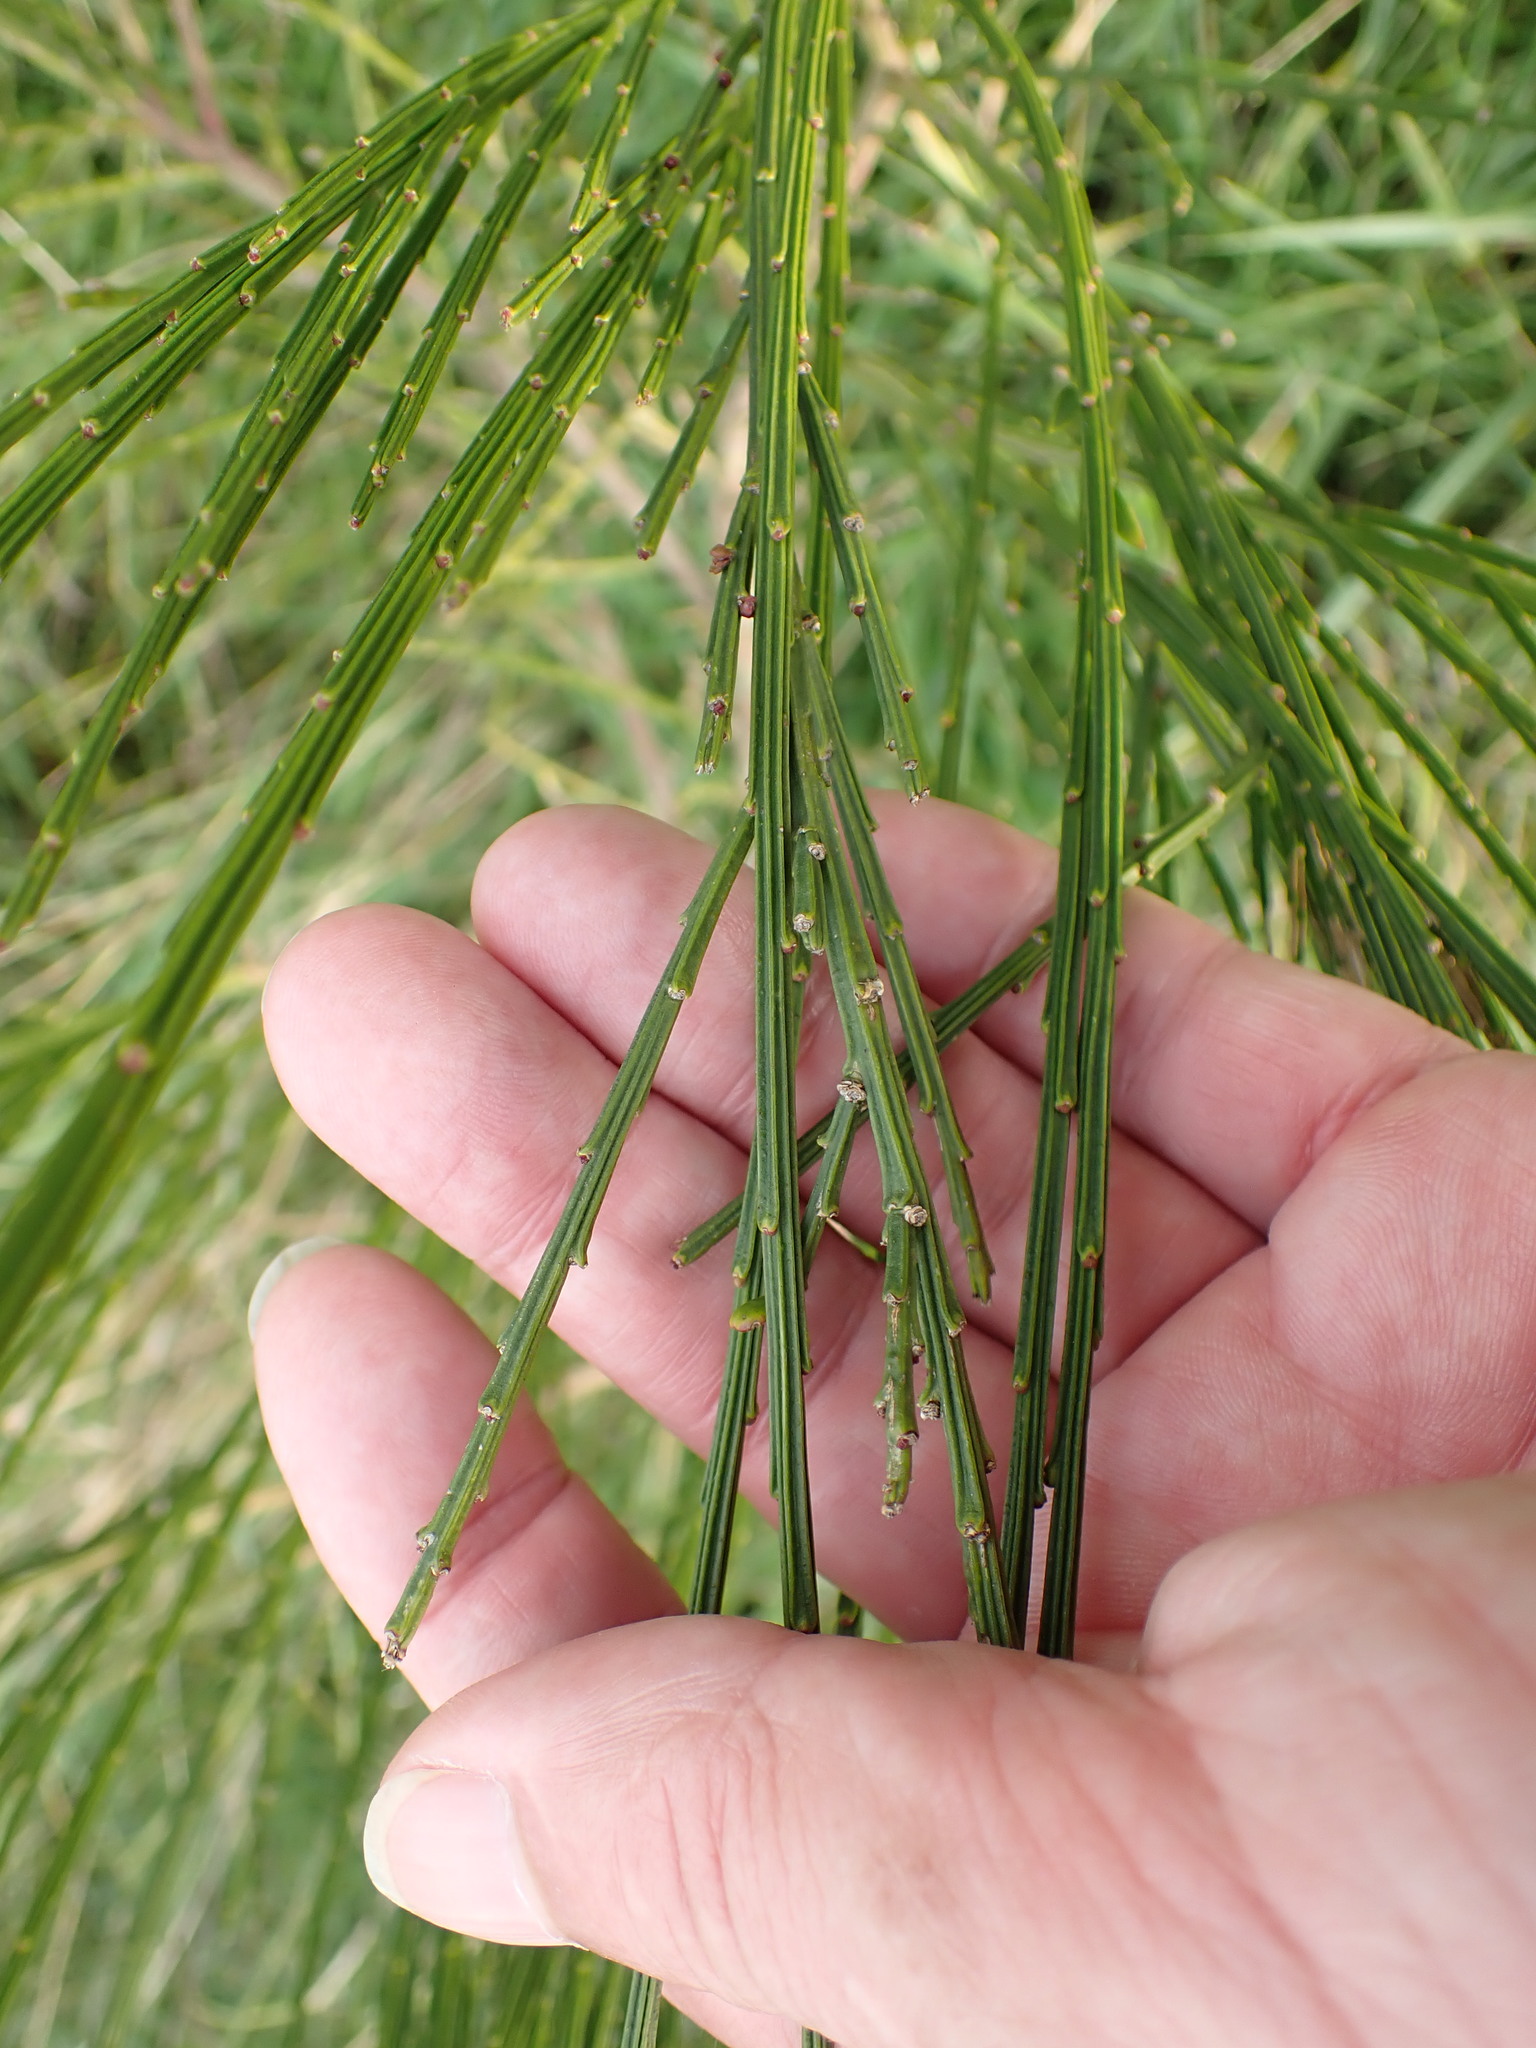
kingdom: Plantae
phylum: Tracheophyta
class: Magnoliopsida
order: Fabales
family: Fabaceae
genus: Cytisus
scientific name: Cytisus scoparius
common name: Scotch broom
